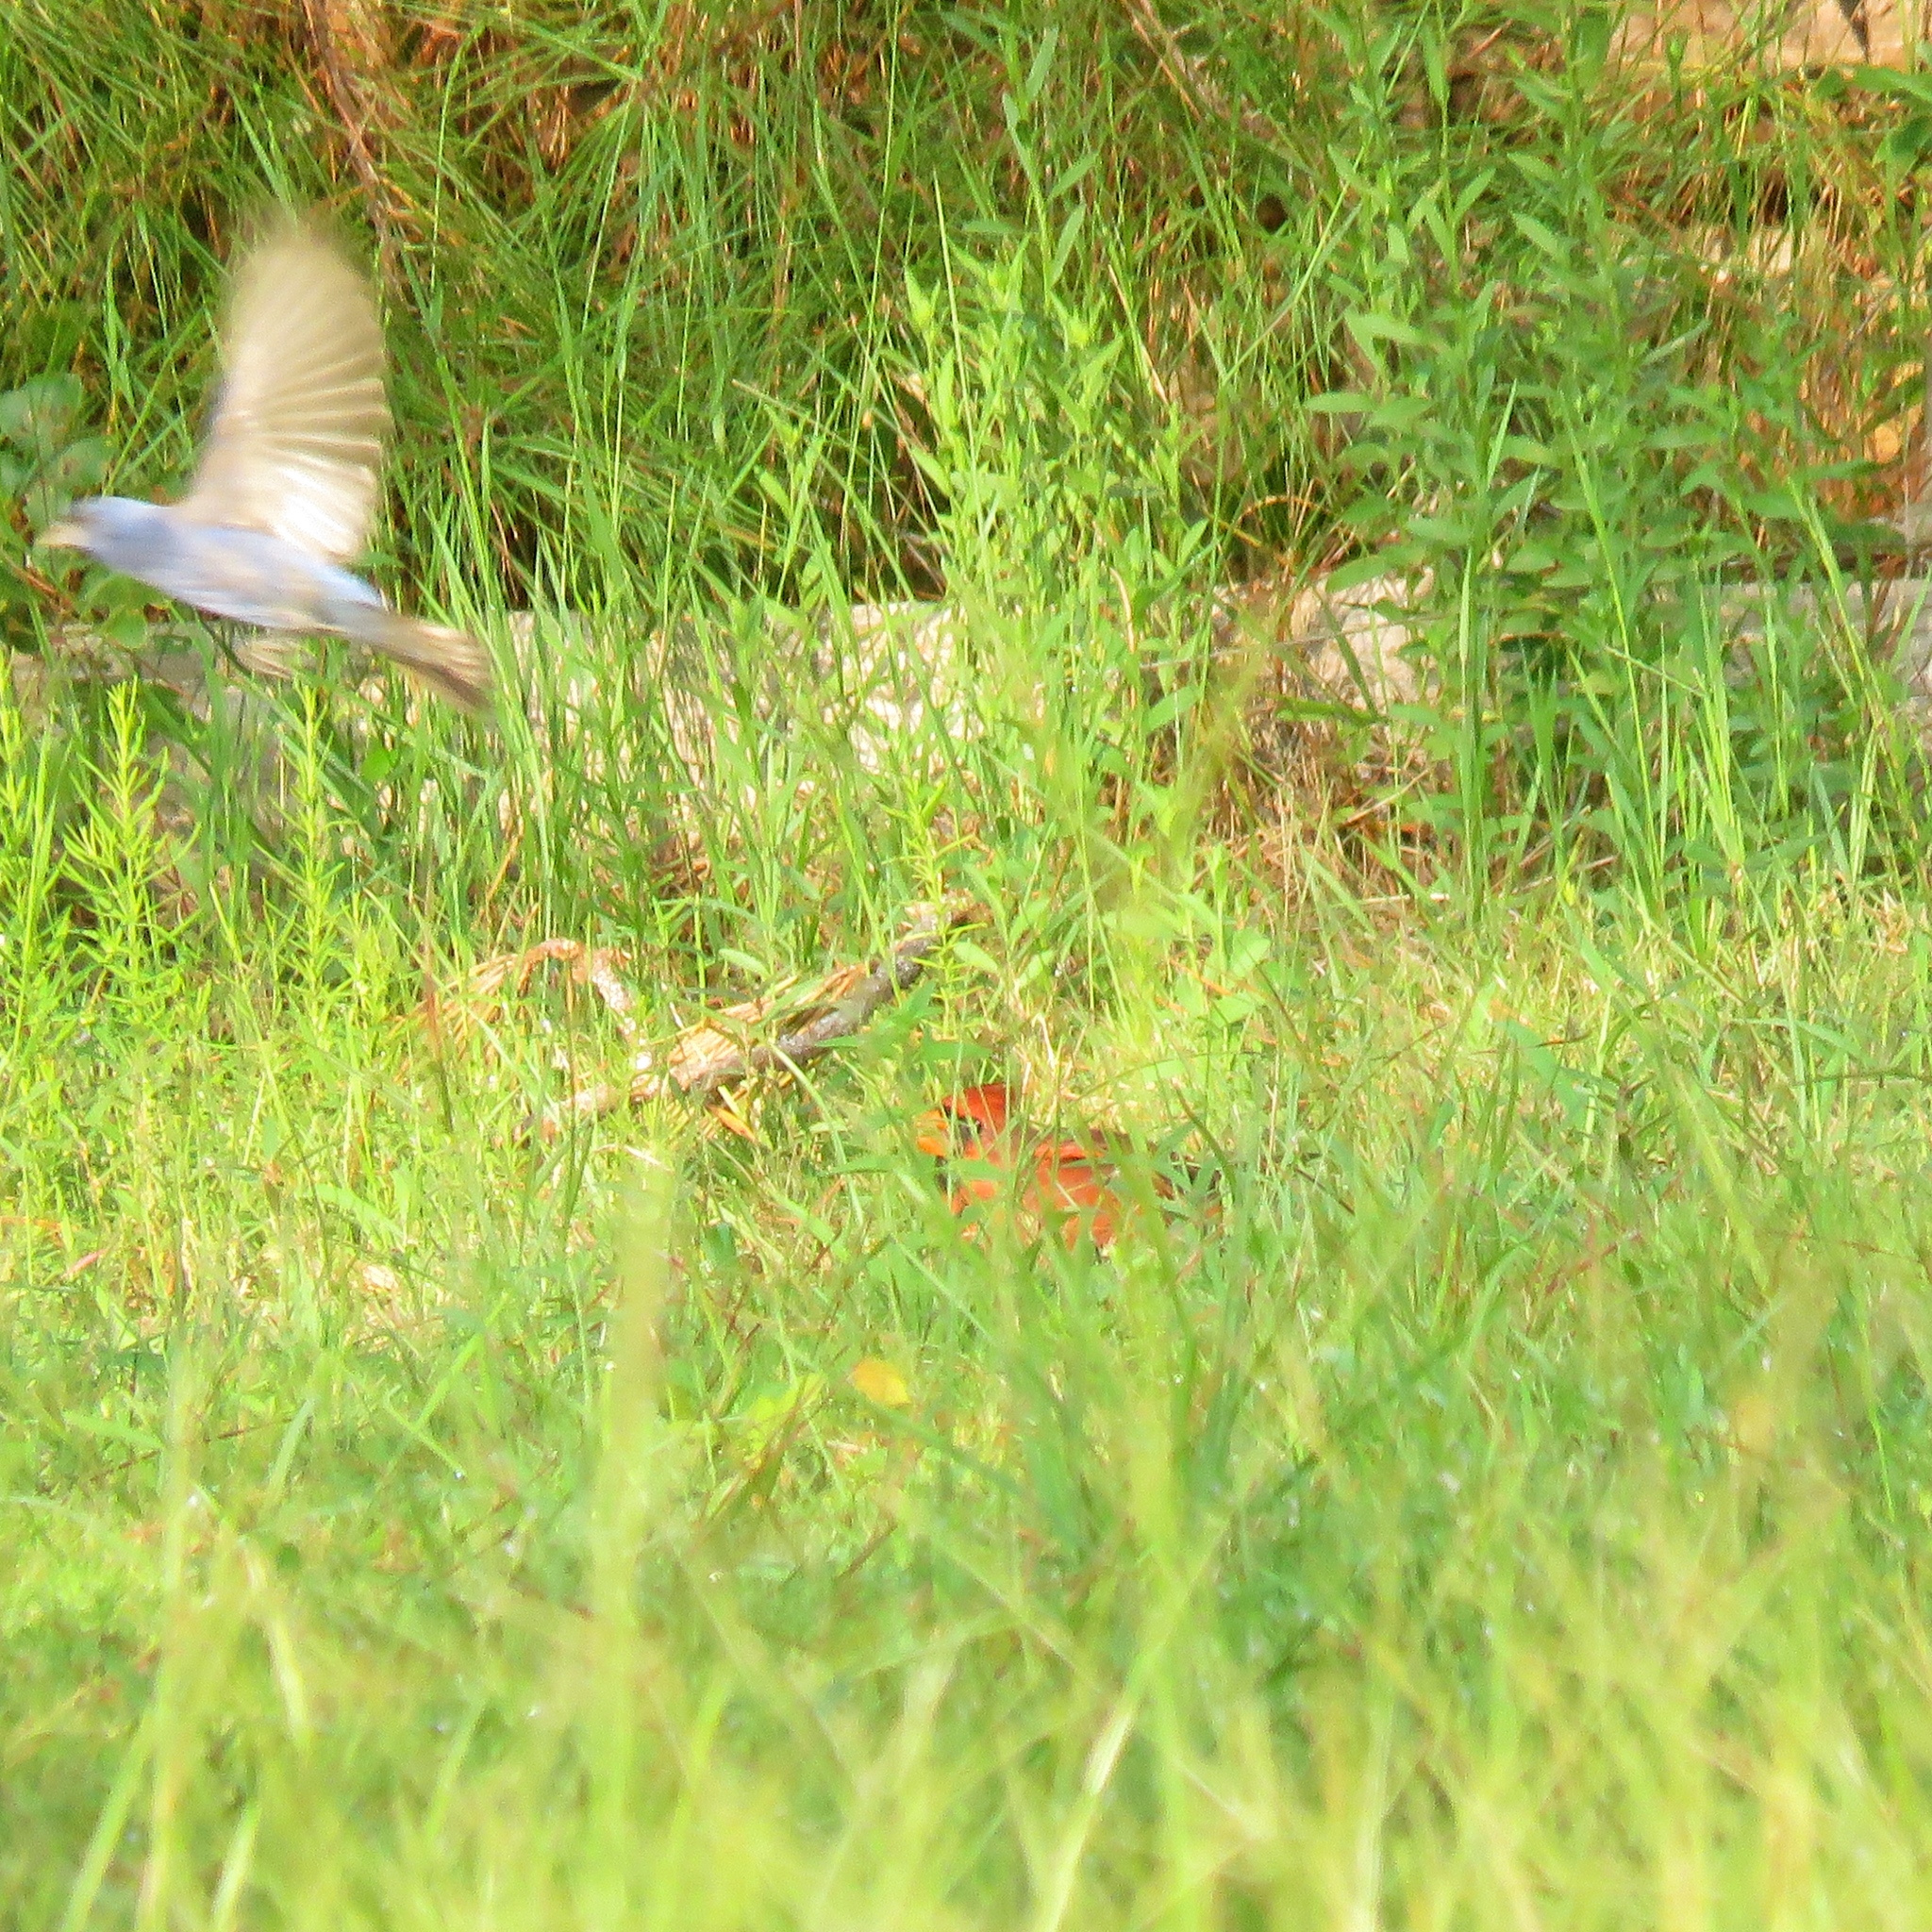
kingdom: Animalia
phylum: Chordata
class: Aves
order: Passeriformes
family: Cardinalidae
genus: Passerina
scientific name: Passerina caerulea
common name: Blue grosbeak
